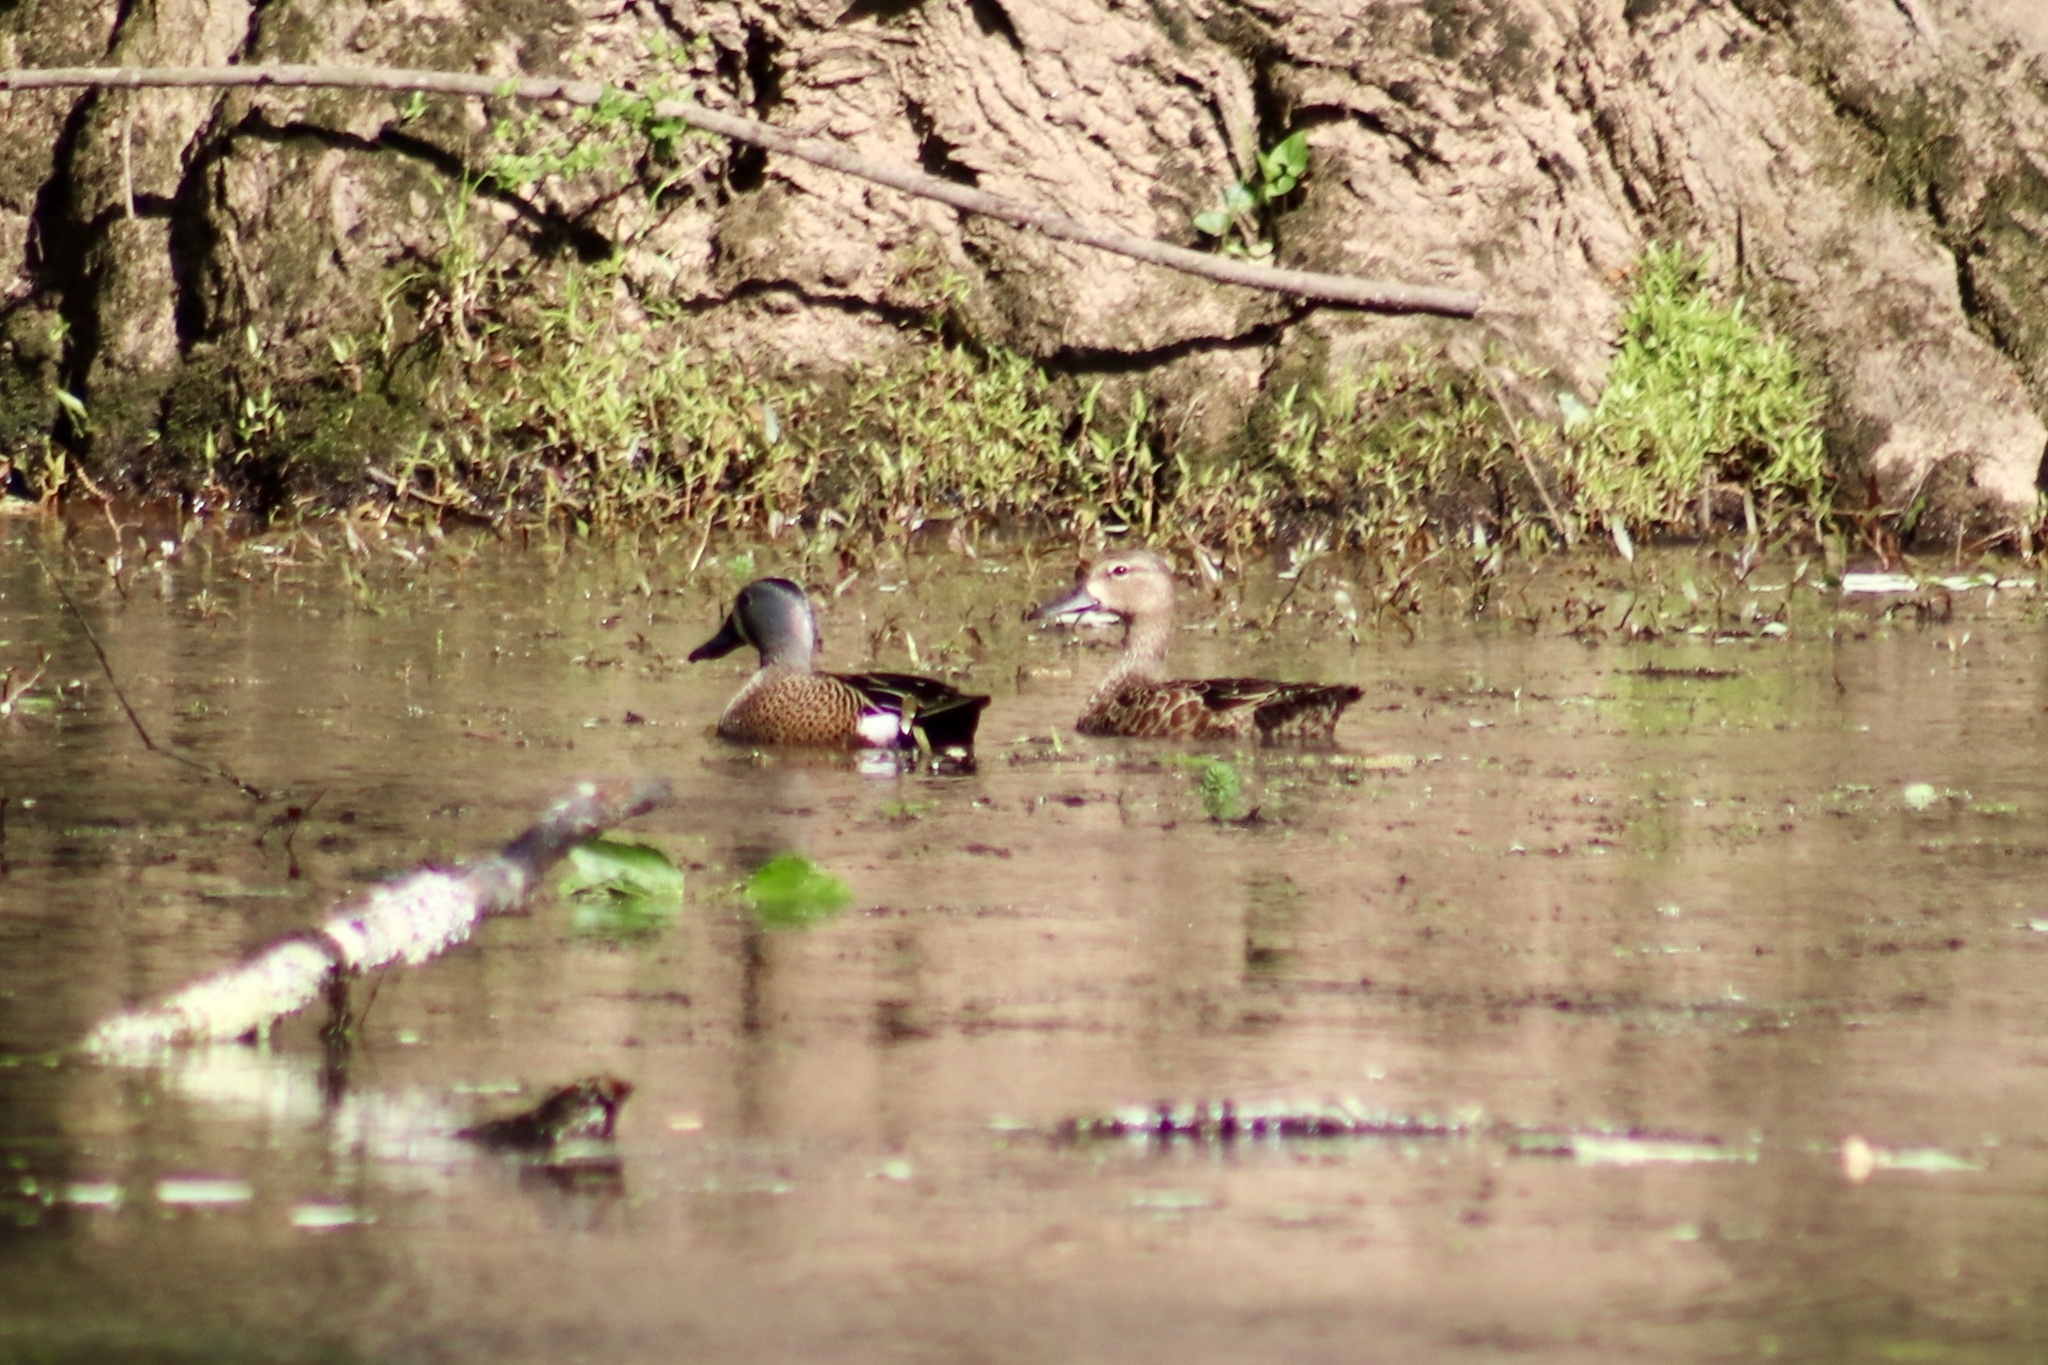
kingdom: Animalia
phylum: Chordata
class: Aves
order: Anseriformes
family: Anatidae
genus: Spatula
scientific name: Spatula discors
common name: Blue-winged teal
